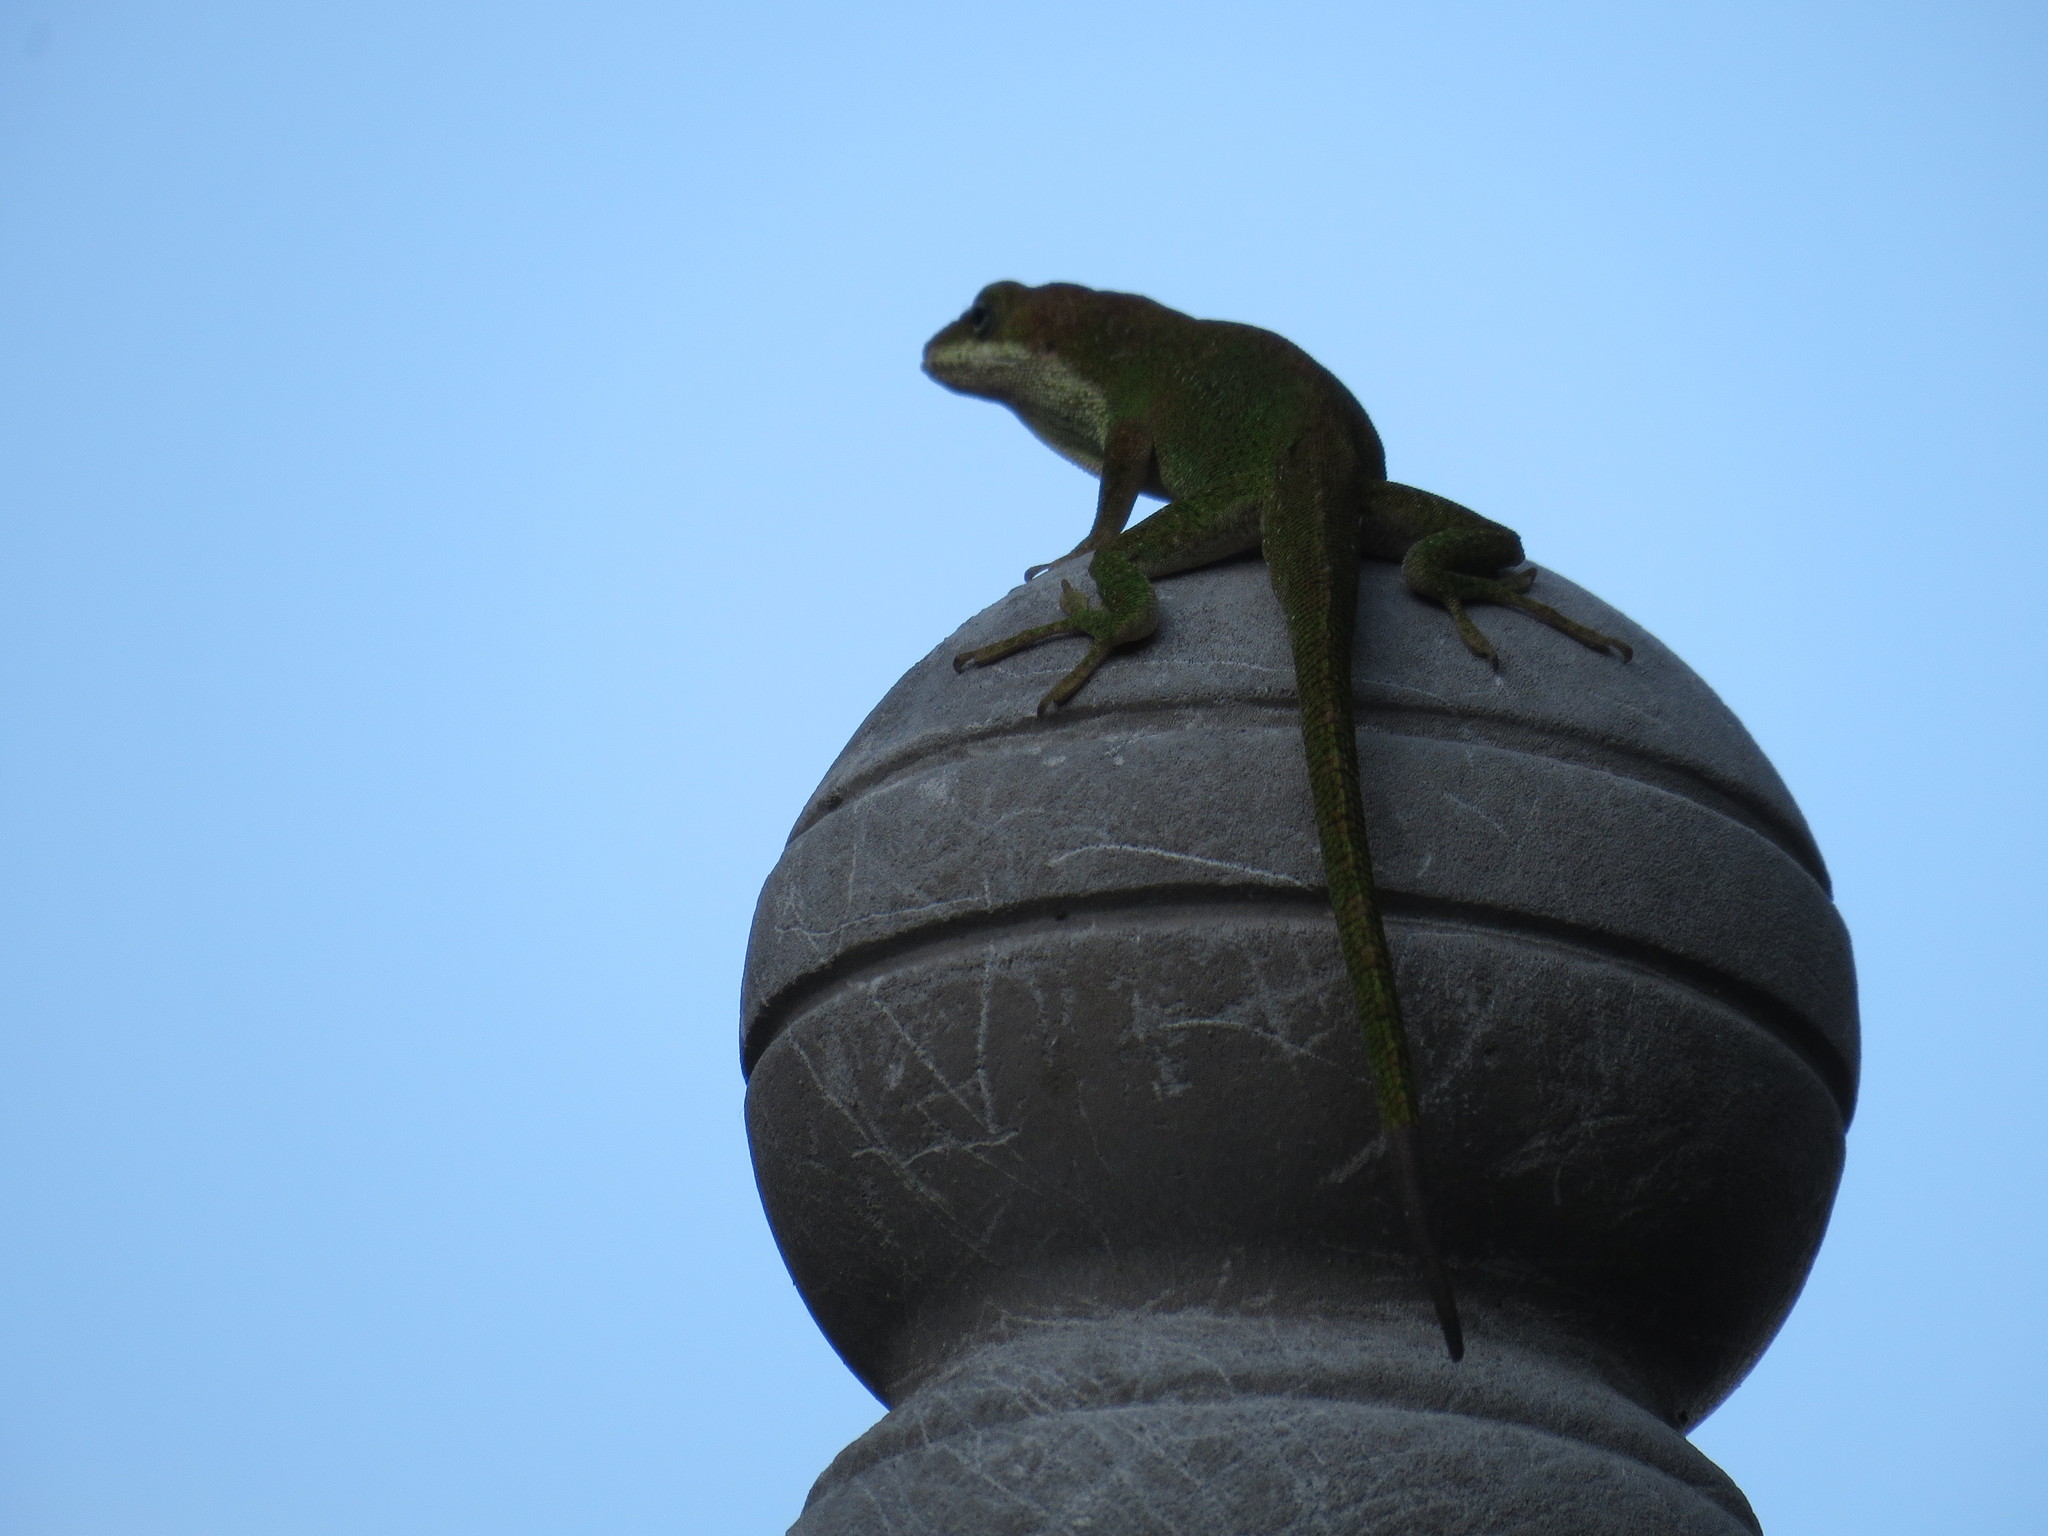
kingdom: Animalia
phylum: Chordata
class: Squamata
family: Dactyloidae
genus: Anolis
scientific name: Anolis carolinensis
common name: Green anole
